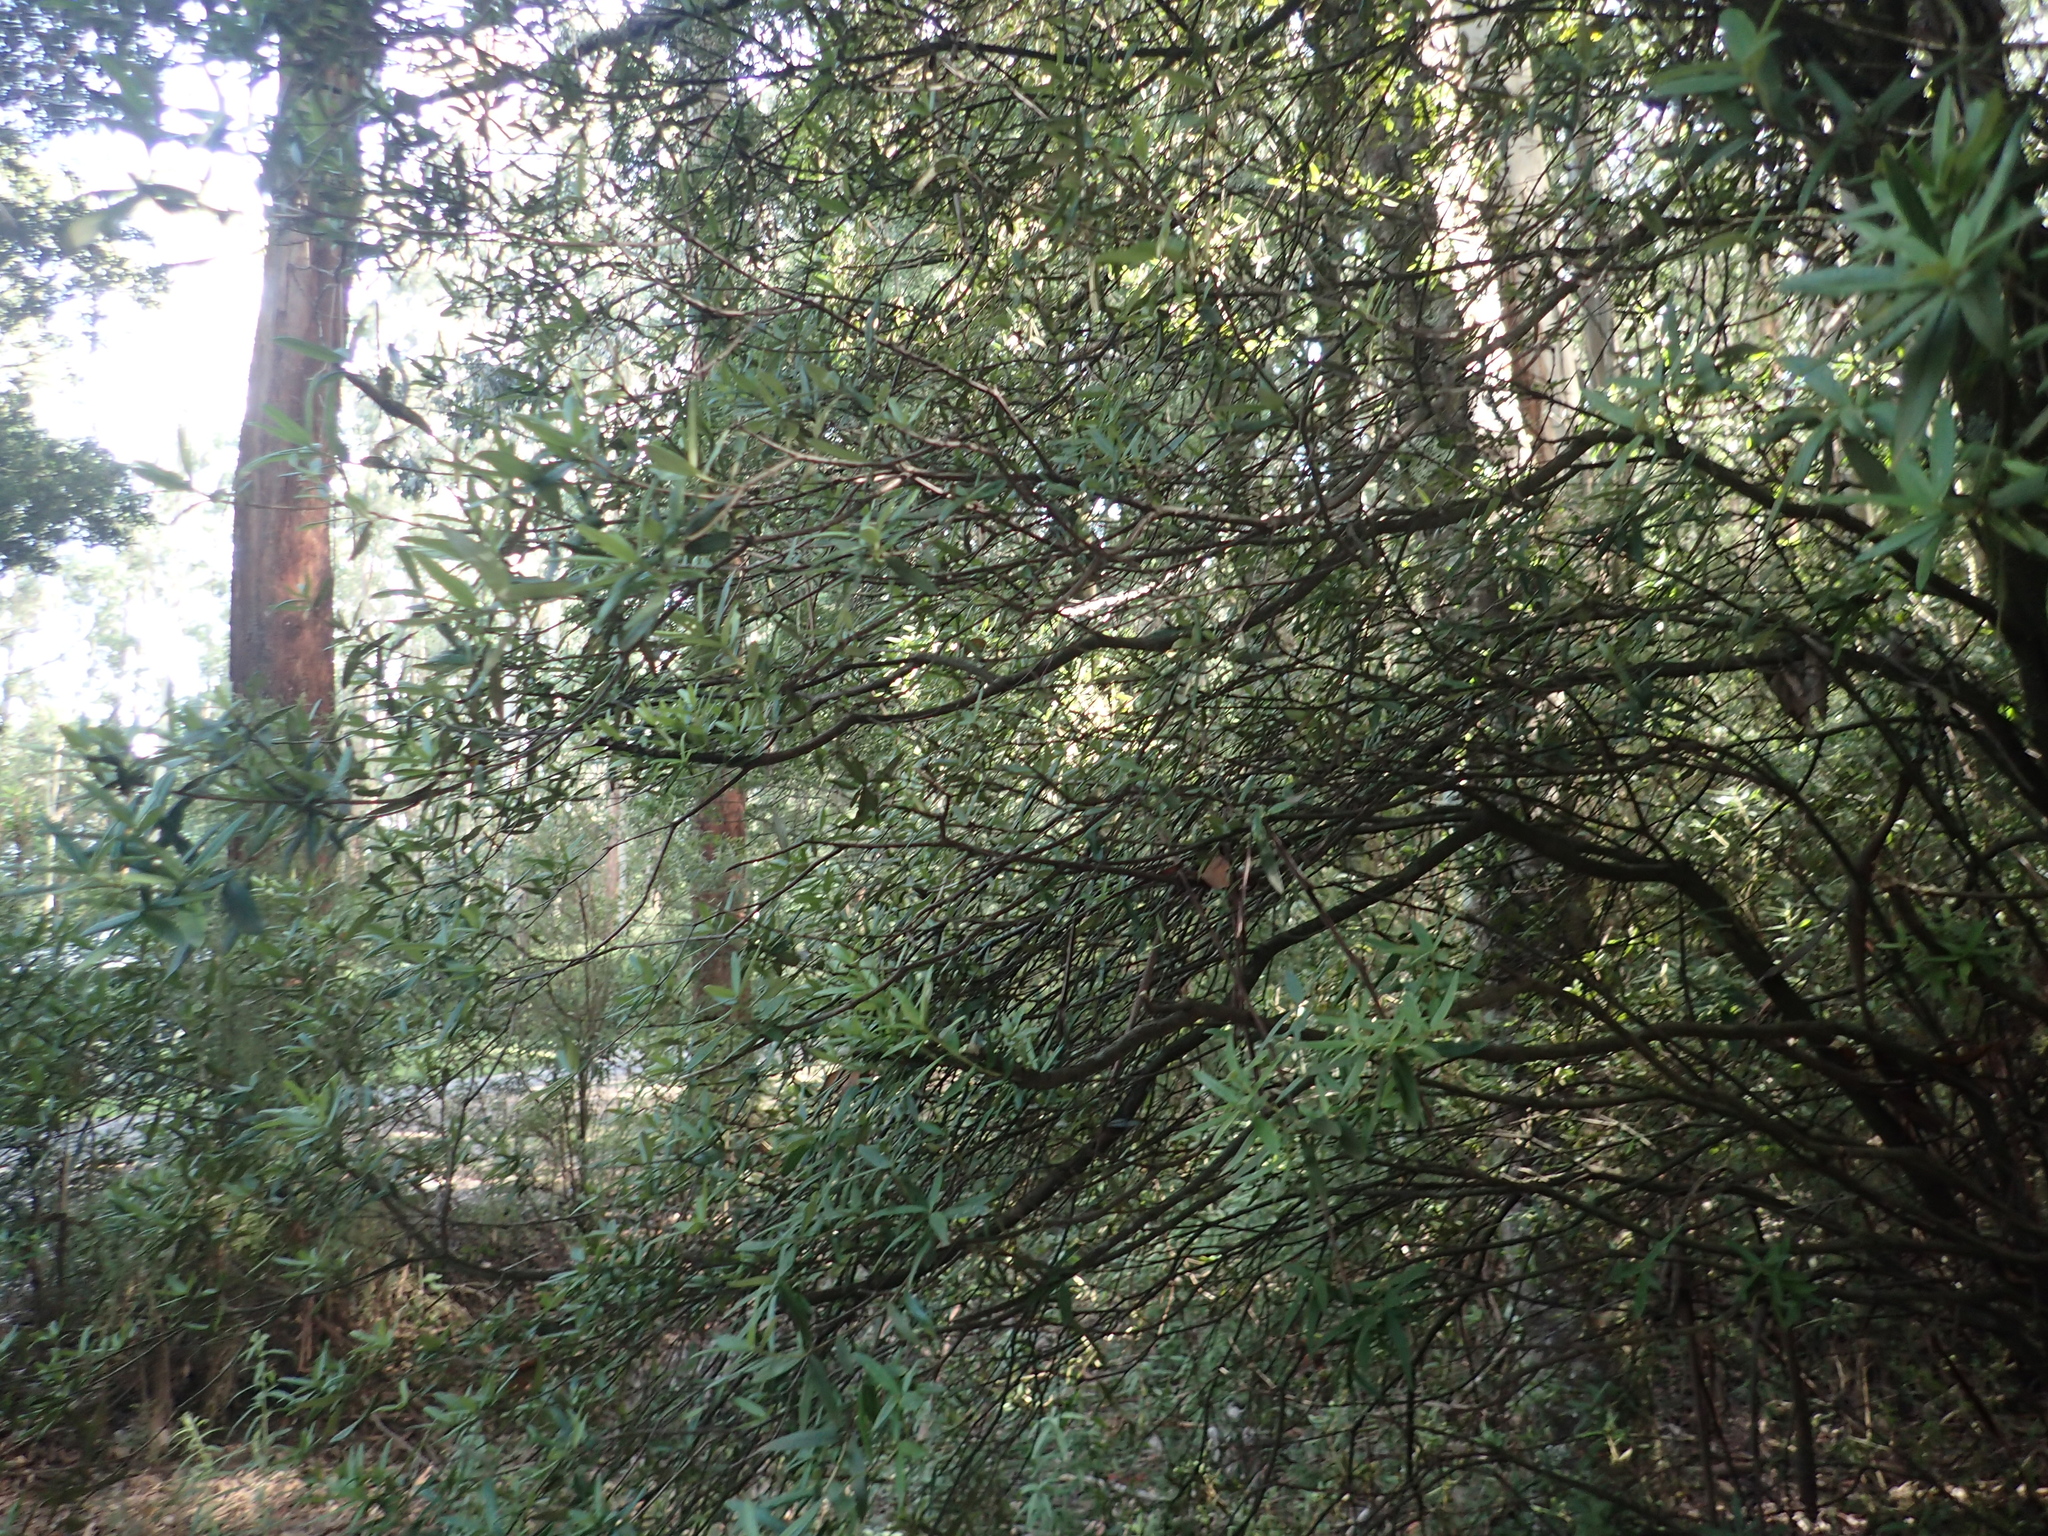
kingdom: Plantae
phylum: Tracheophyta
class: Magnoliopsida
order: Apiales
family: Pittosporaceae
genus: Pittosporum
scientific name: Pittosporum bicolor
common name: Tallowwood
